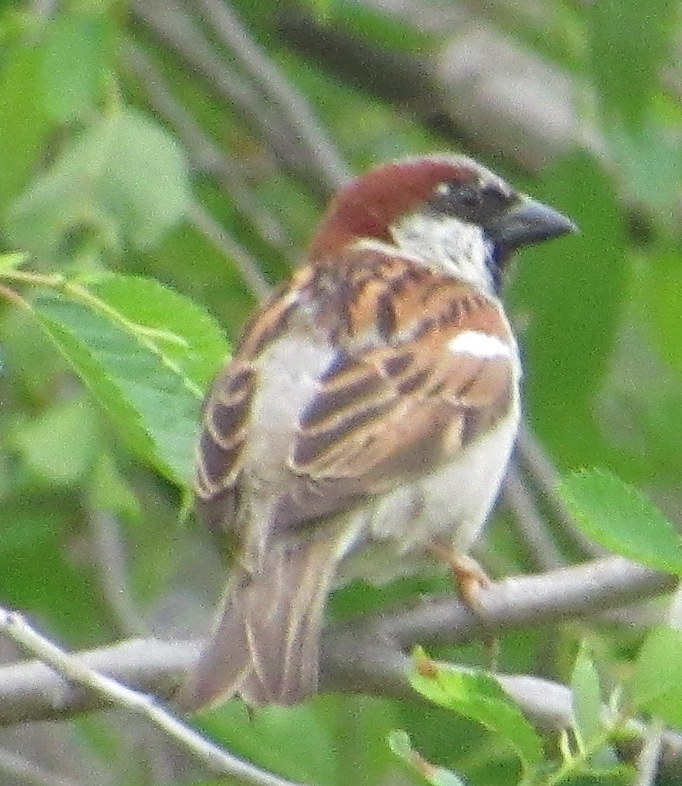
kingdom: Animalia
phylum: Chordata
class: Aves
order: Passeriformes
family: Passeridae
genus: Passer
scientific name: Passer domesticus
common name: House sparrow
